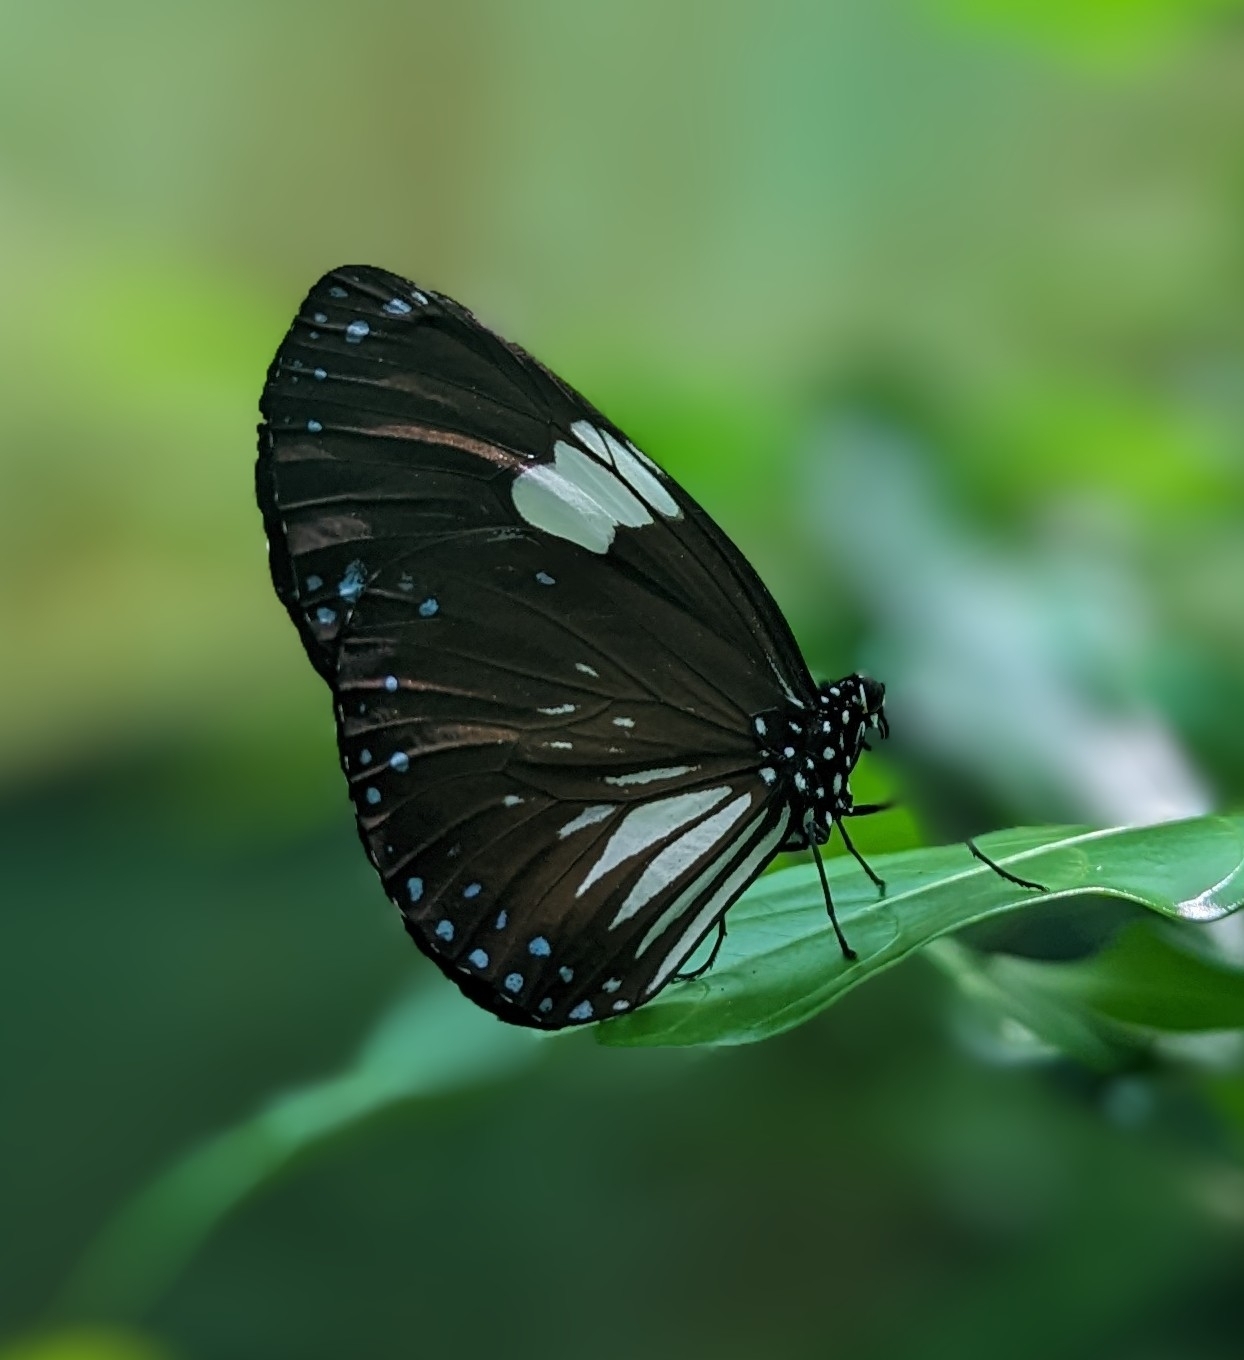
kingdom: Animalia
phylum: Arthropoda
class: Insecta
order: Lepidoptera
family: Nymphalidae
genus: Euploea
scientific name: Euploea radamanthus
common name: Magpie crow butterfly
